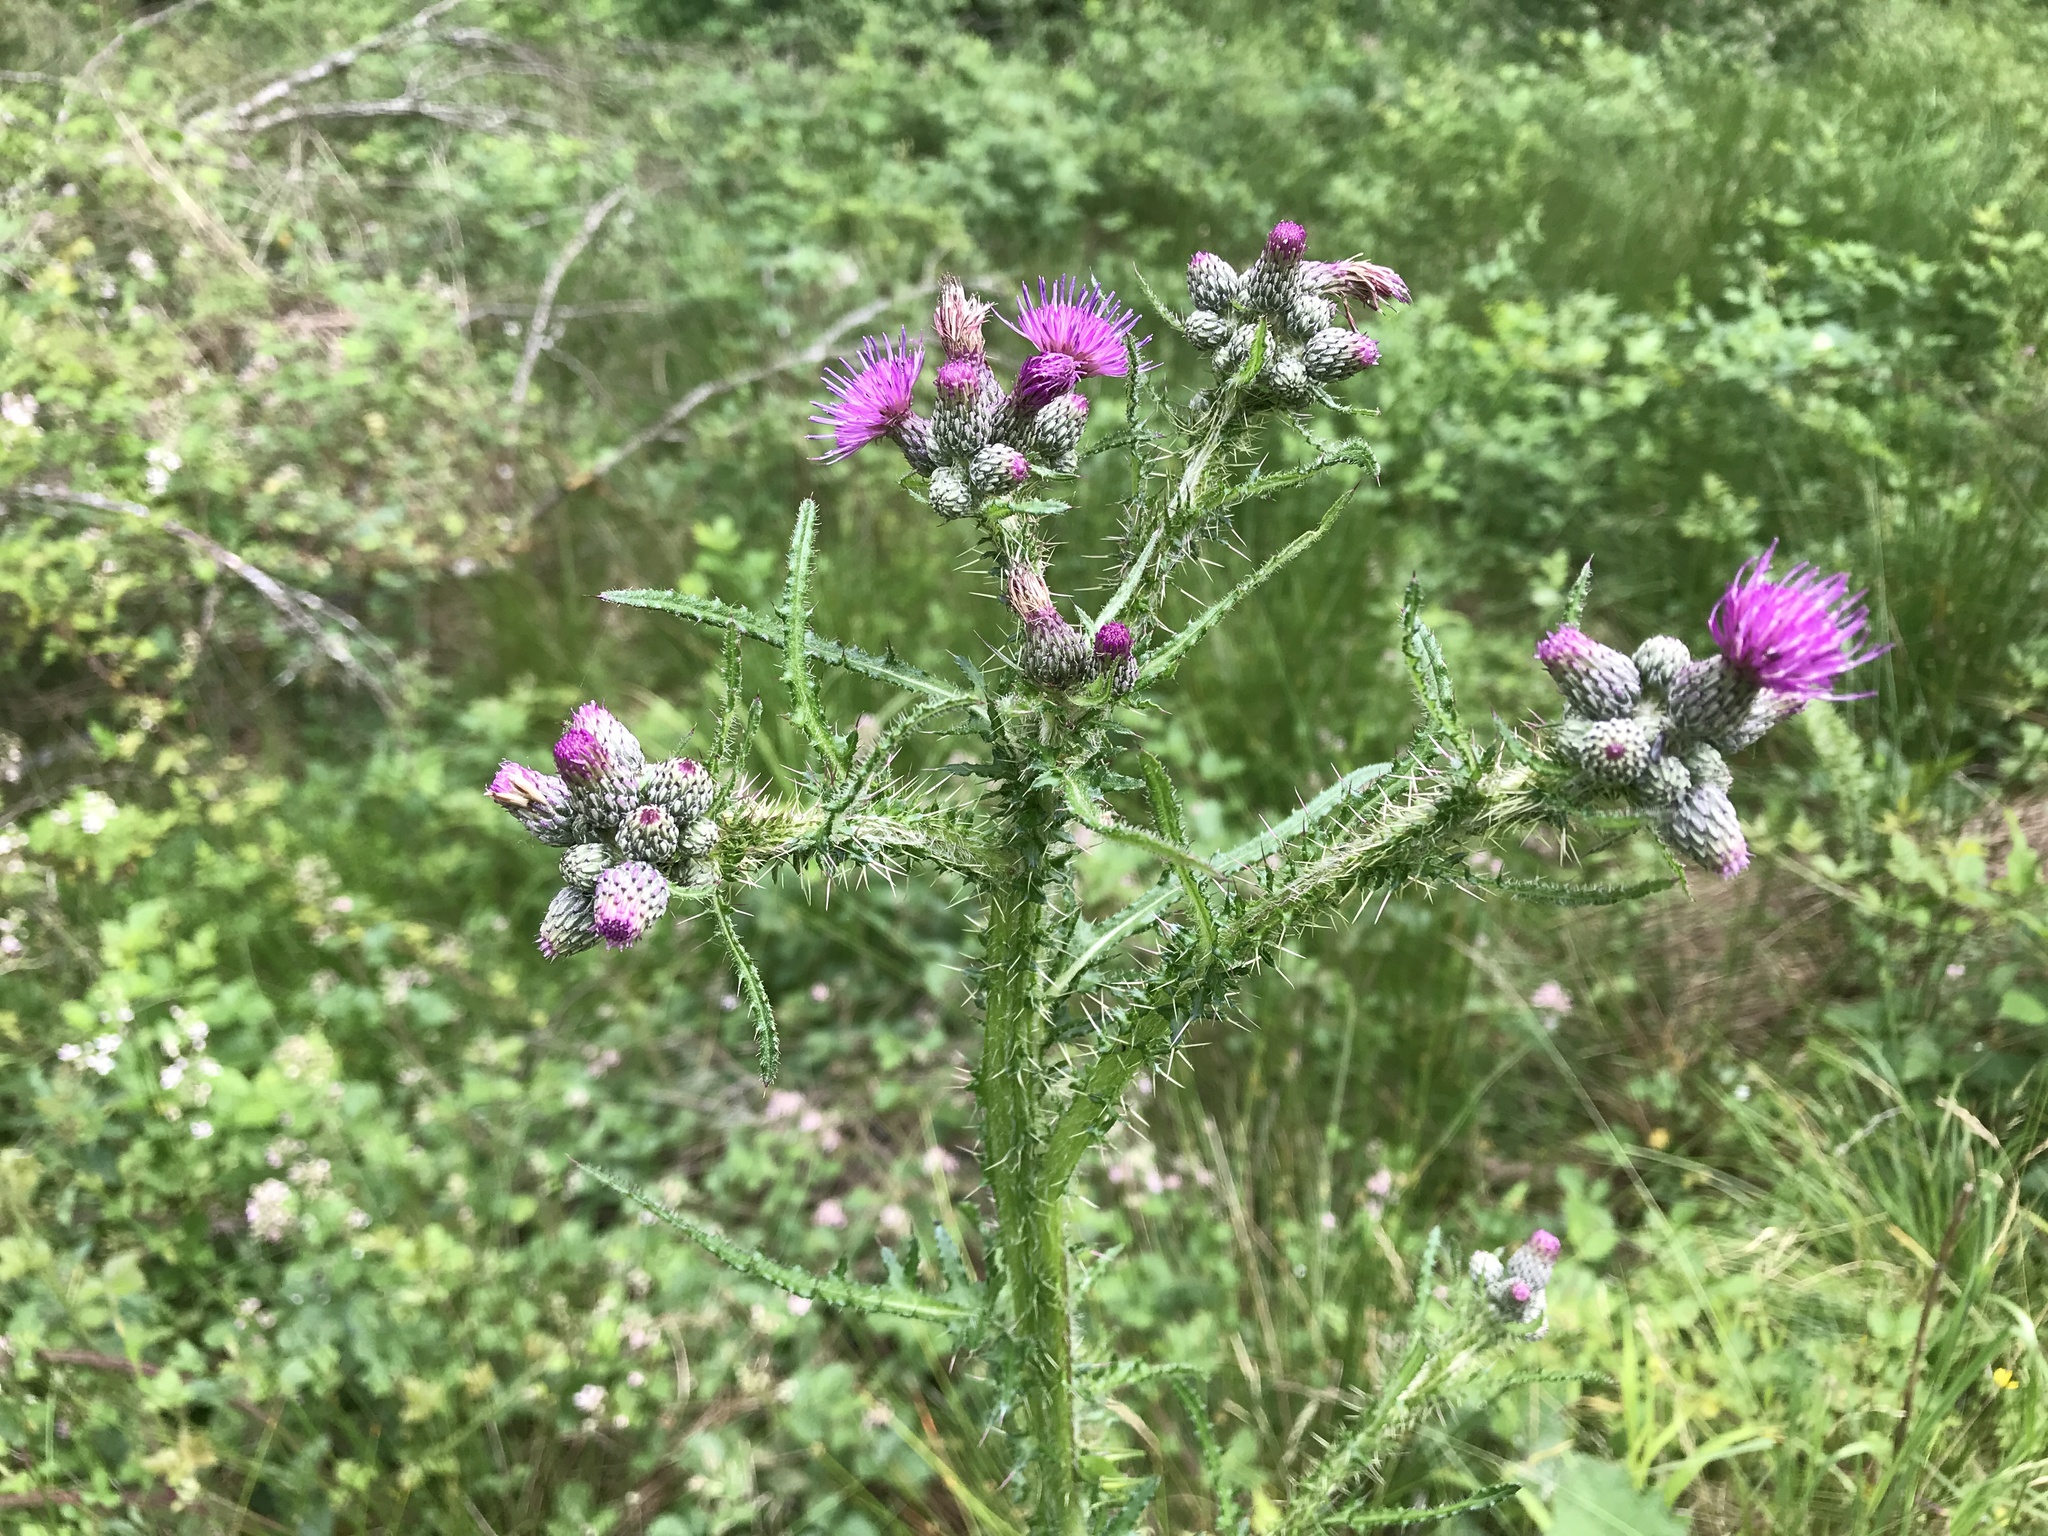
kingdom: Plantae
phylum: Tracheophyta
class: Magnoliopsida
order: Asterales
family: Asteraceae
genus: Carduus
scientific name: Carduus crispus
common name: Welted thistle
